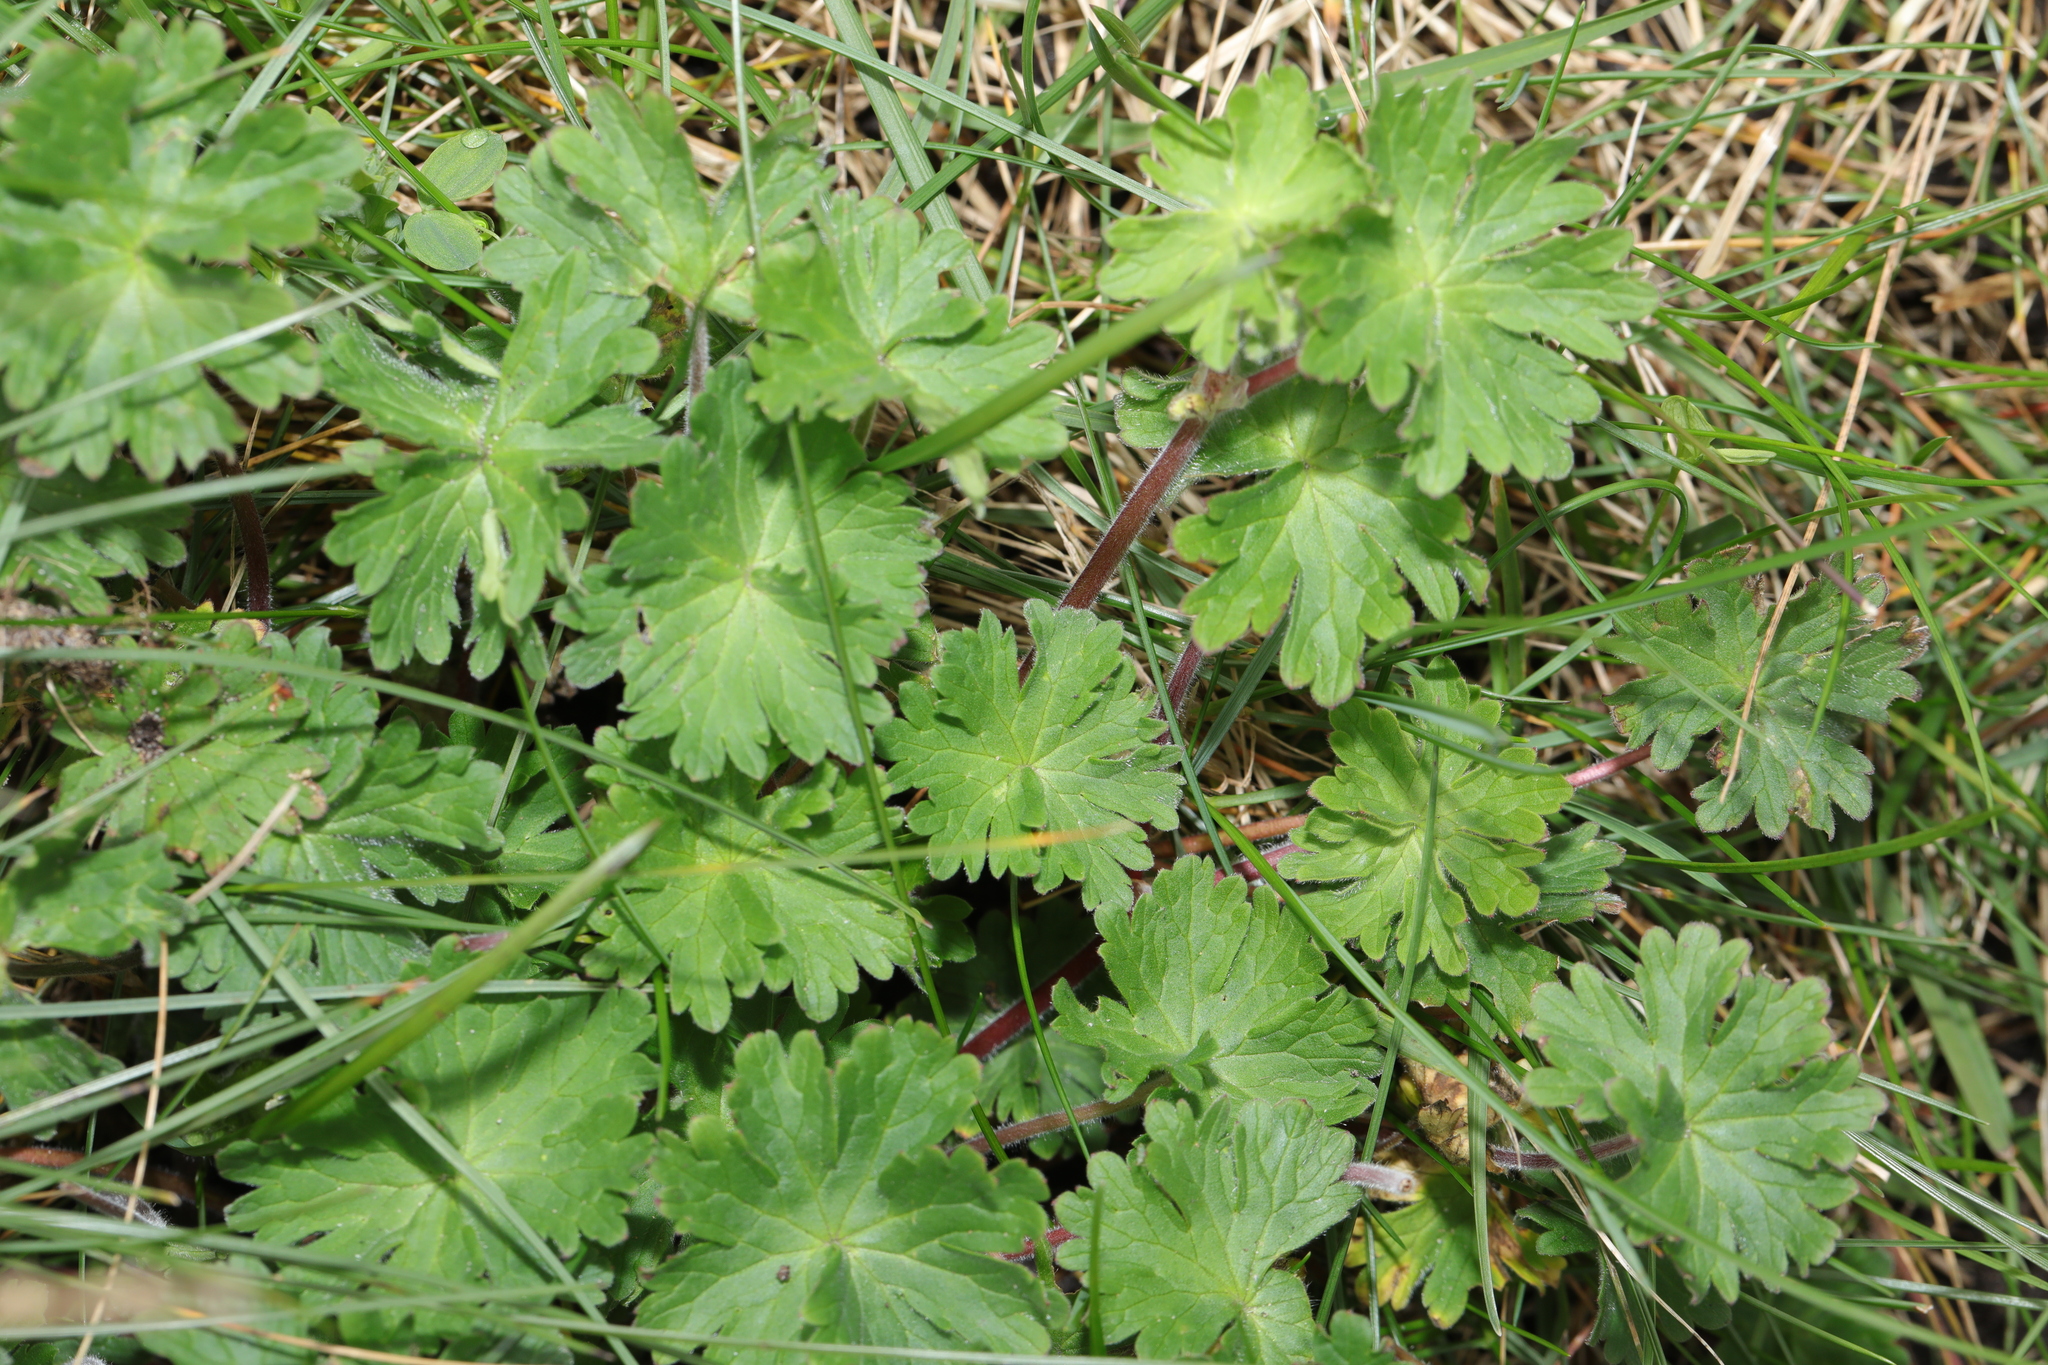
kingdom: Plantae
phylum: Tracheophyta
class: Magnoliopsida
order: Geraniales
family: Geraniaceae
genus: Geranium
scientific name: Geranium molle
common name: Dove's-foot crane's-bill
